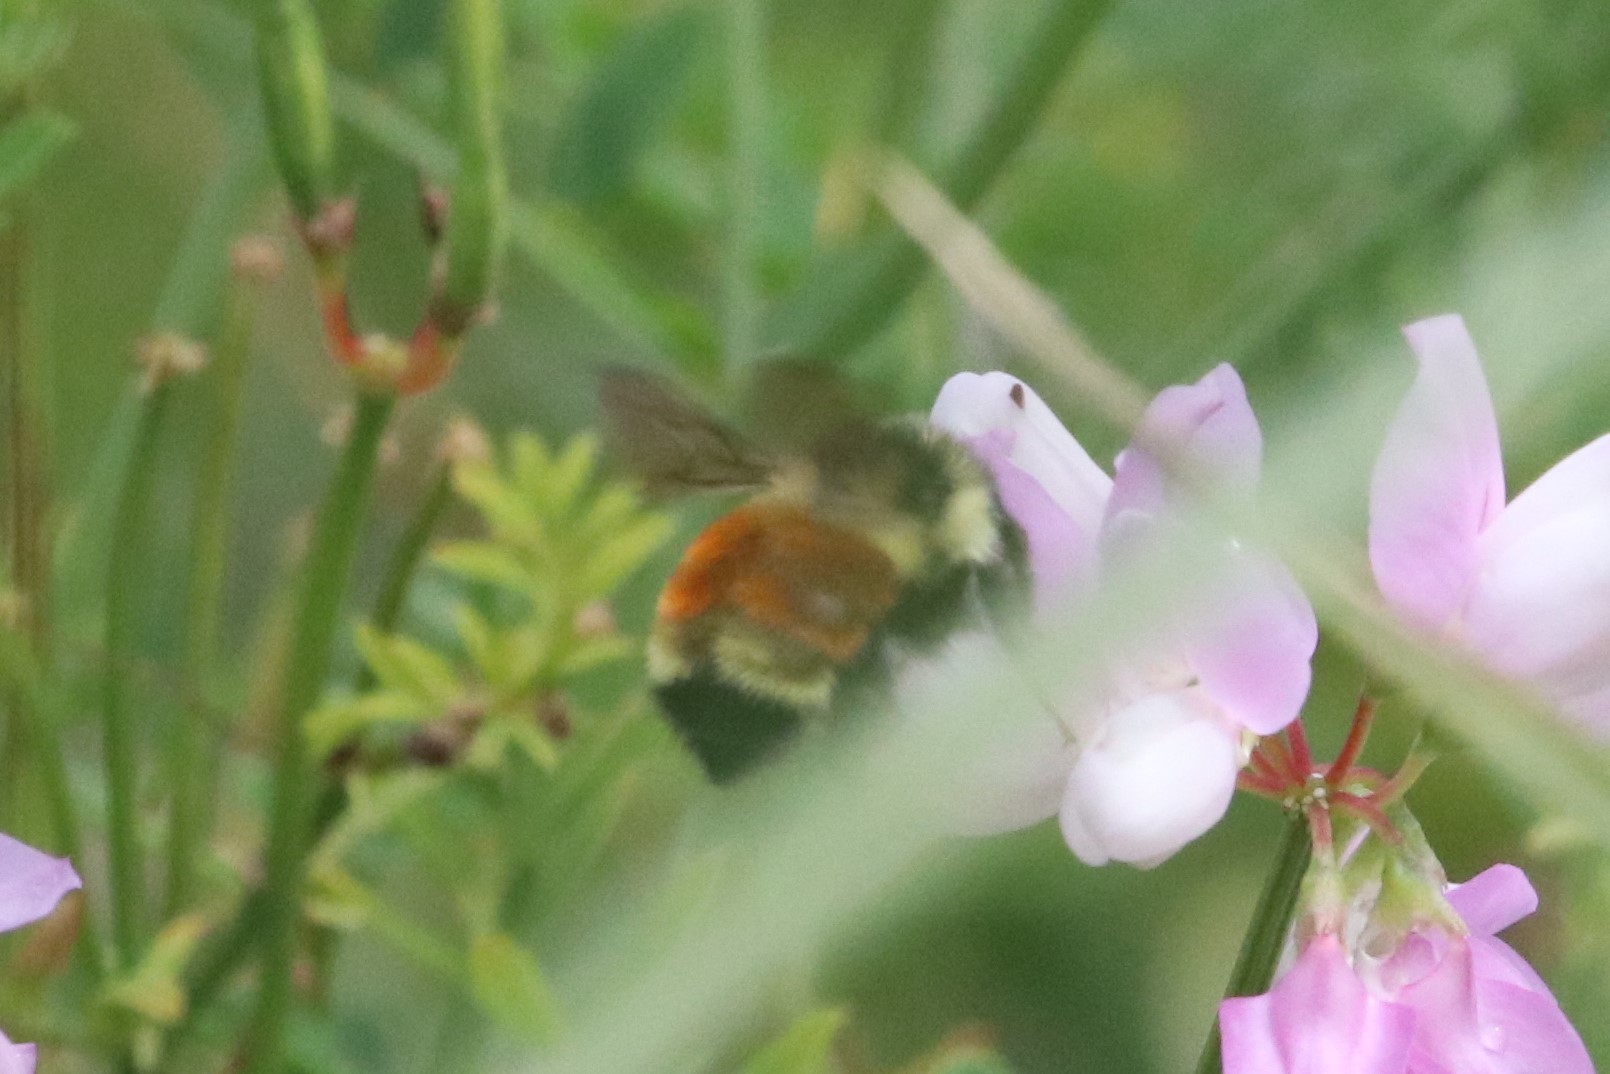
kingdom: Animalia
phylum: Arthropoda
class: Insecta
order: Hymenoptera
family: Apidae
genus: Bombus
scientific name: Bombus ternarius
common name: Tri-colored bumble bee
